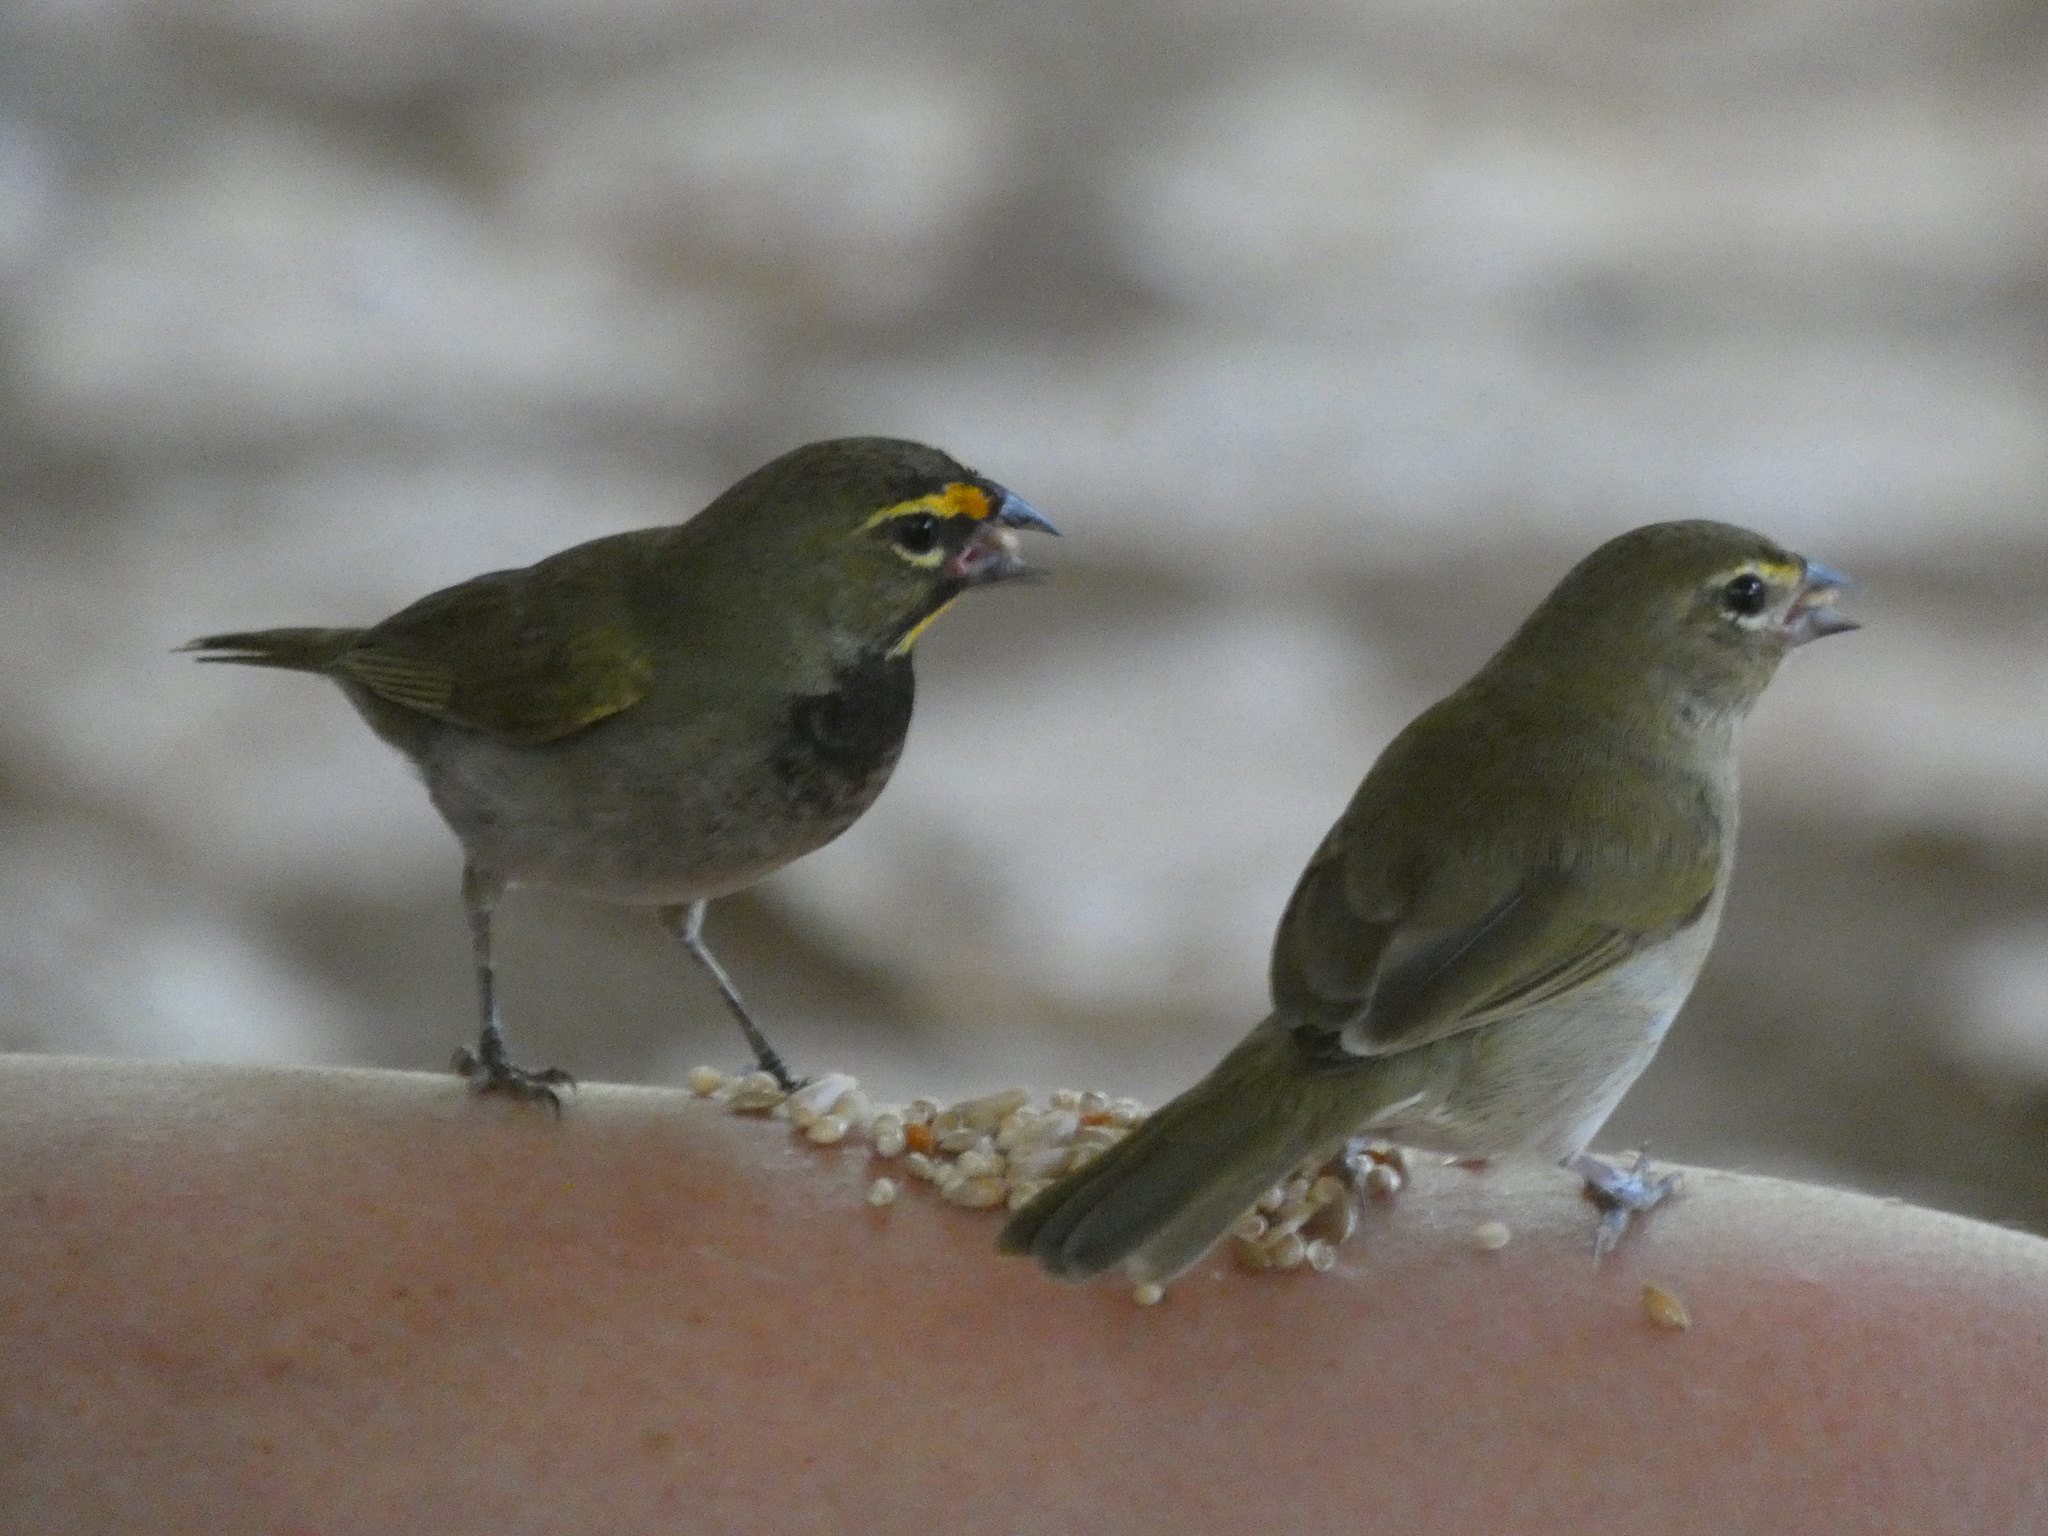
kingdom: Animalia
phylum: Chordata
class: Aves
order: Passeriformes
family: Thraupidae
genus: Tiaris
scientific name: Tiaris olivaceus
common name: Yellow-faced grassquit
